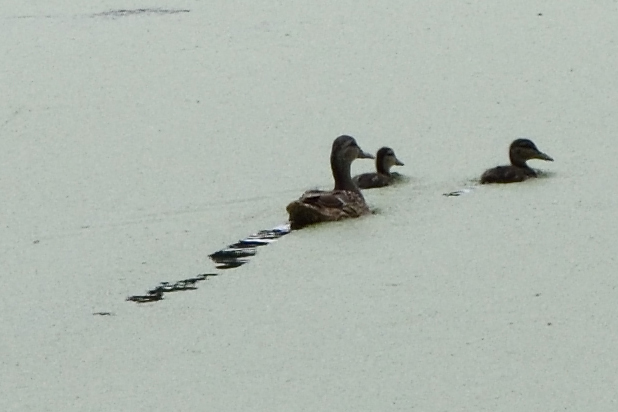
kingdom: Animalia
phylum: Chordata
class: Aves
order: Anseriformes
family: Anatidae
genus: Anas
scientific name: Anas platyrhynchos
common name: Mallard
